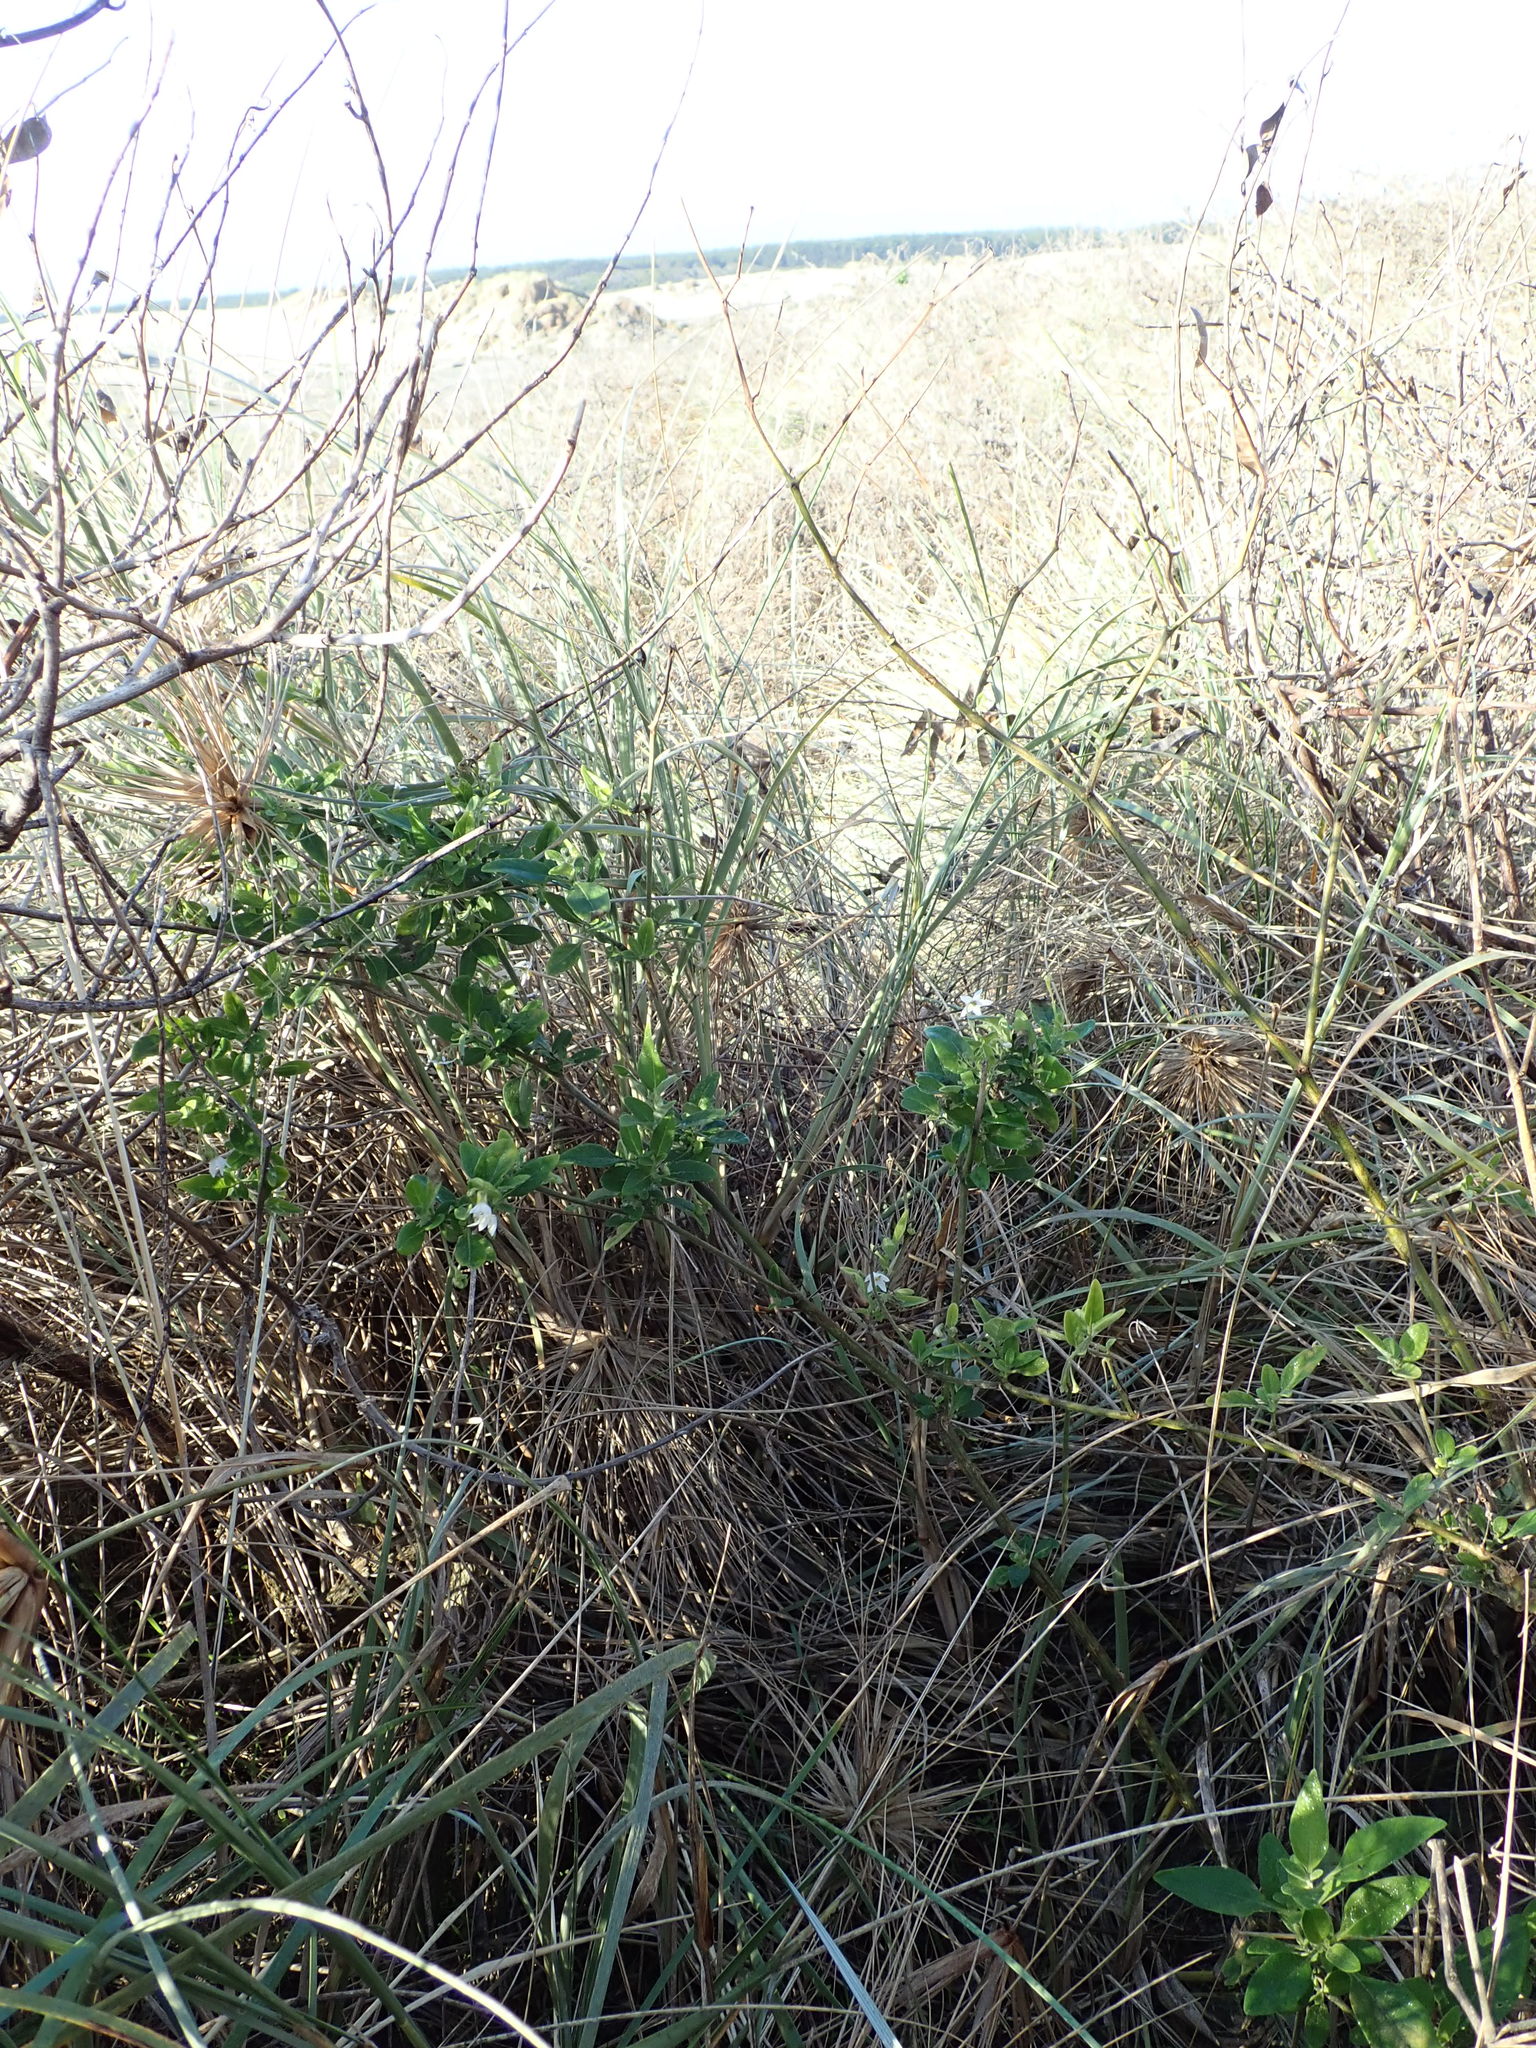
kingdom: Plantae
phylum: Tracheophyta
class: Magnoliopsida
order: Solanales
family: Solanaceae
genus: Solanum
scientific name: Solanum chenopodioides
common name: Tall nightshade
